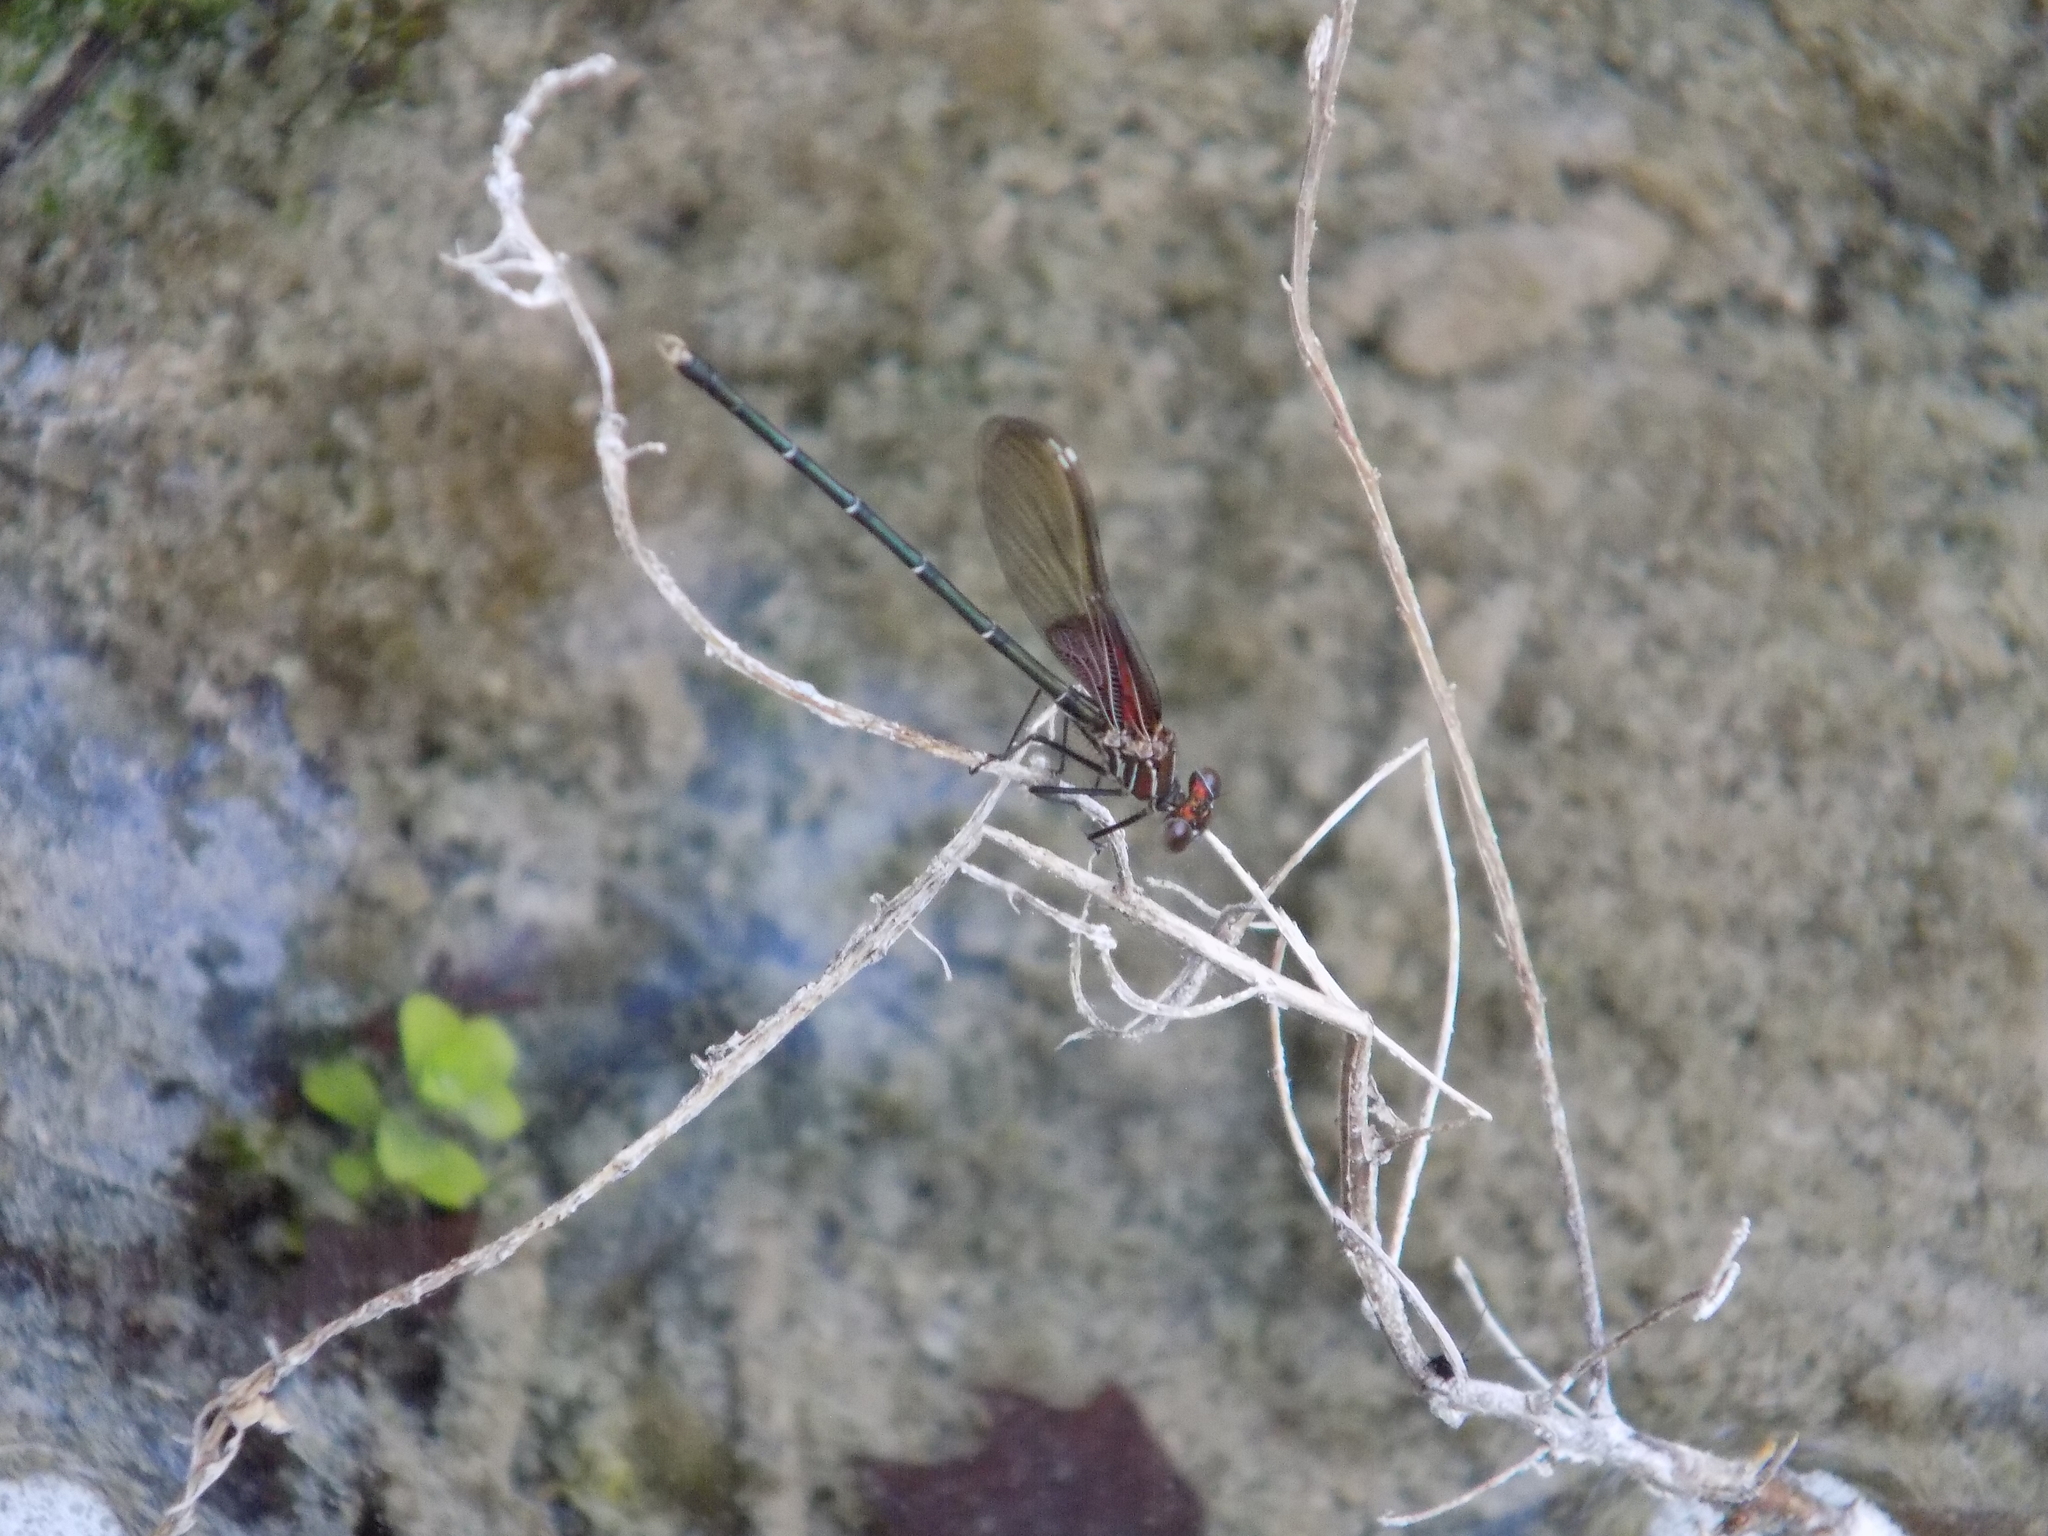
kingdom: Animalia
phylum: Arthropoda
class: Insecta
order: Odonata
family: Calopterygidae
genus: Hetaerina
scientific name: Hetaerina americana
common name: American rubyspot
